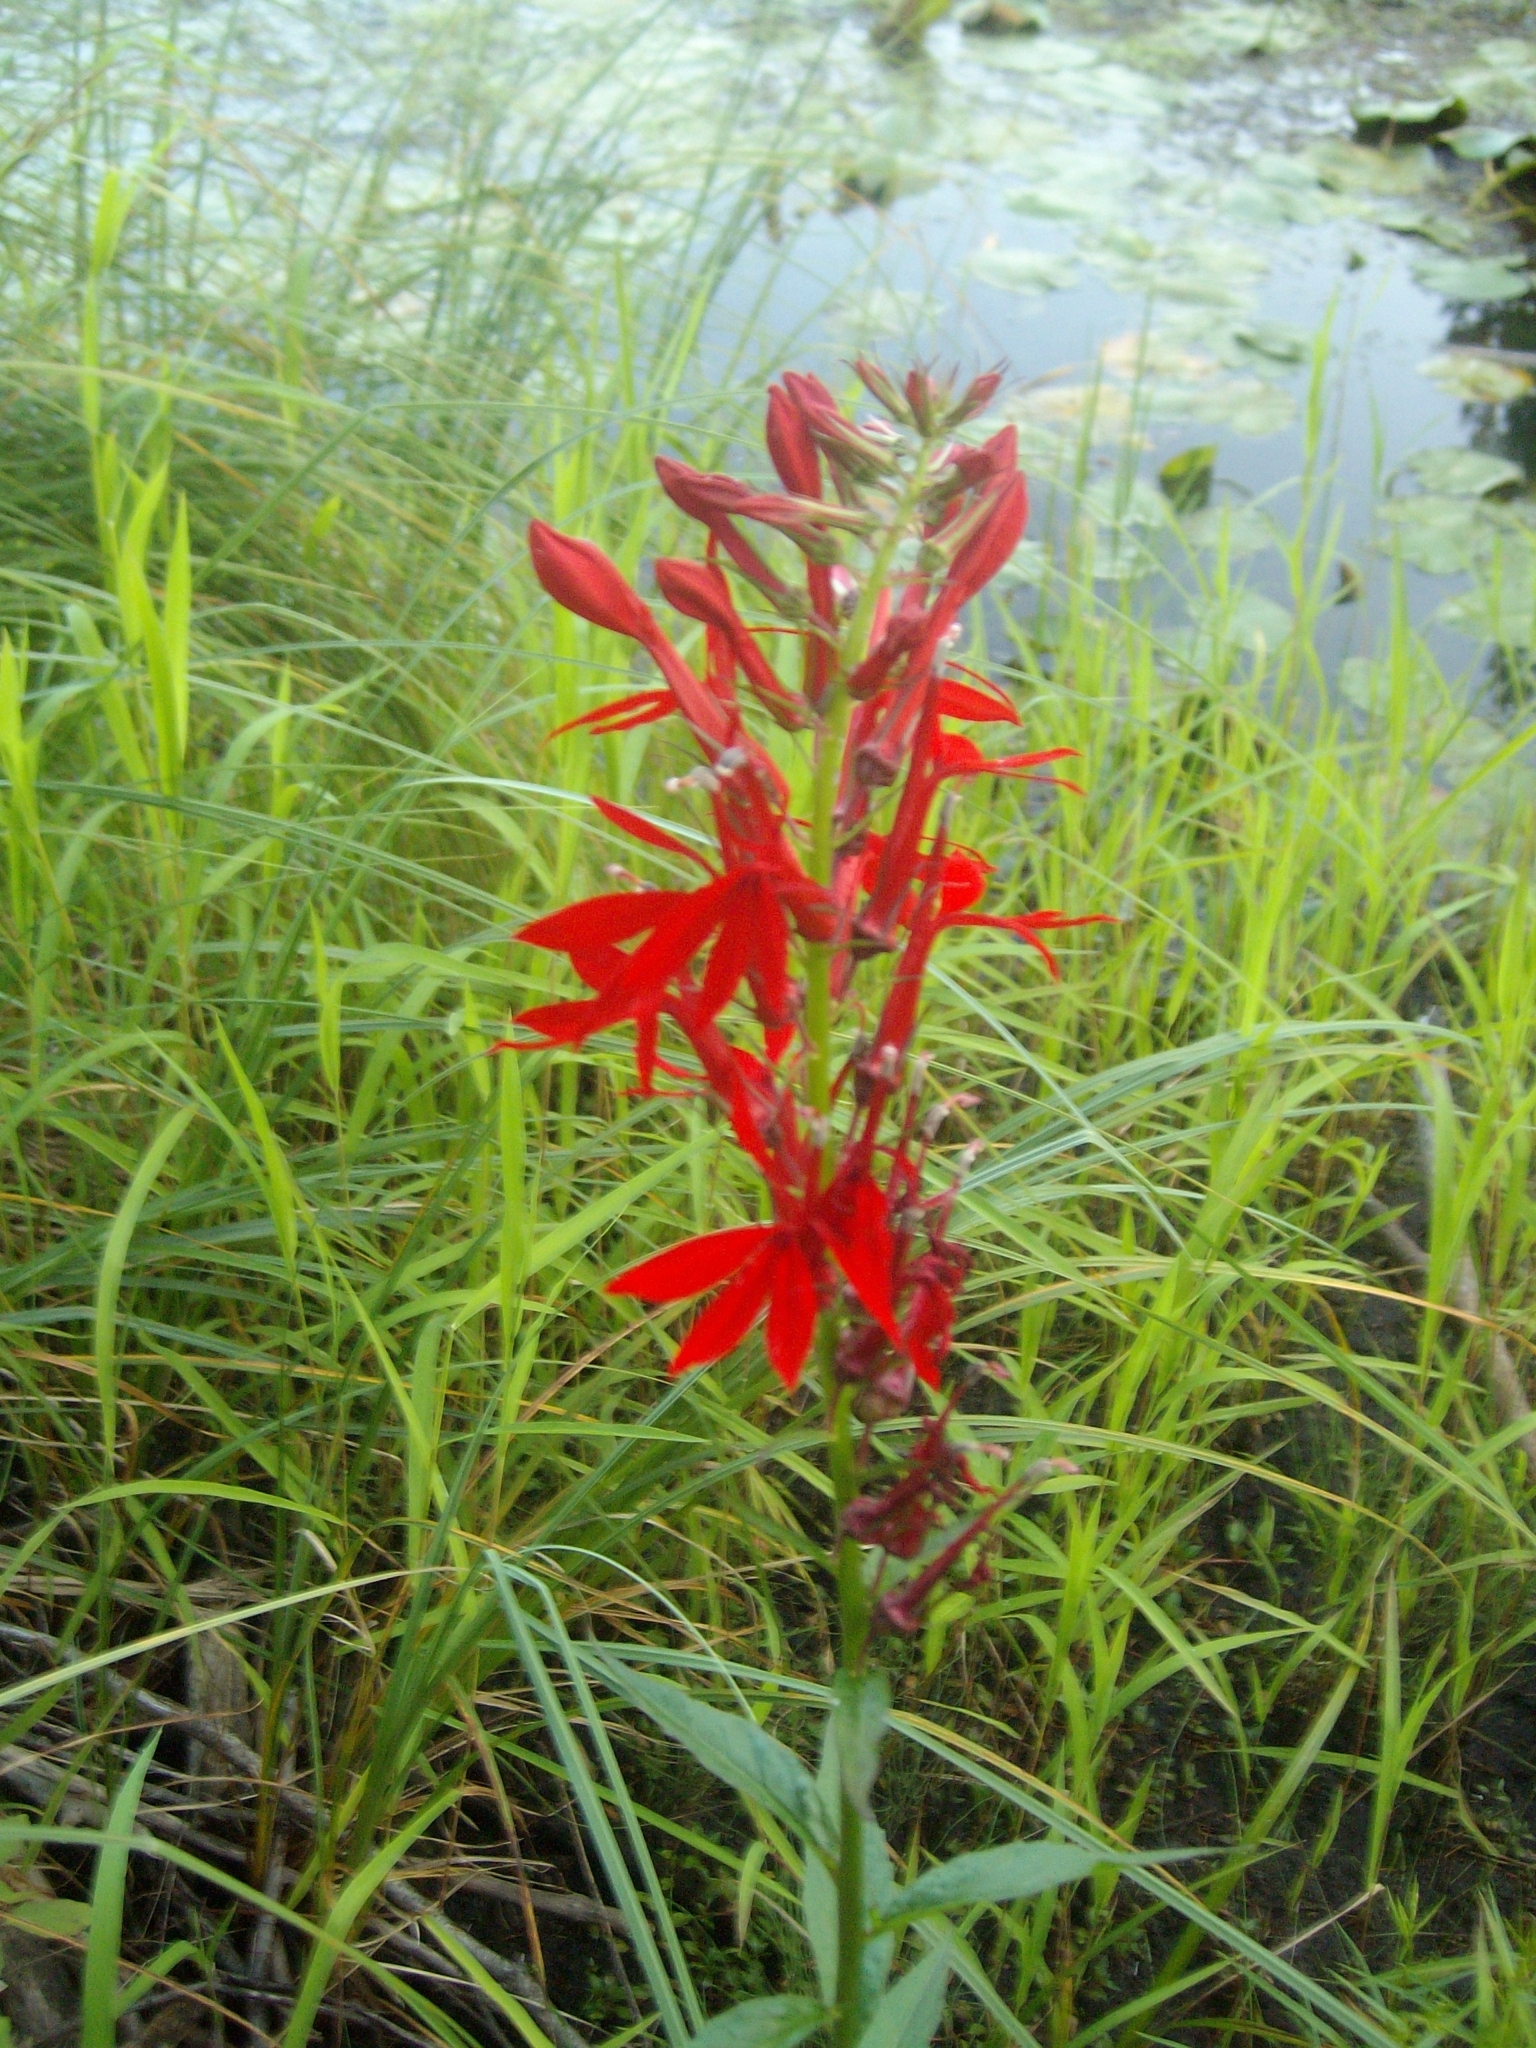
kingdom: Plantae
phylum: Tracheophyta
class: Magnoliopsida
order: Asterales
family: Campanulaceae
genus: Lobelia
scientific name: Lobelia cardinalis
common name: Cardinal flower
